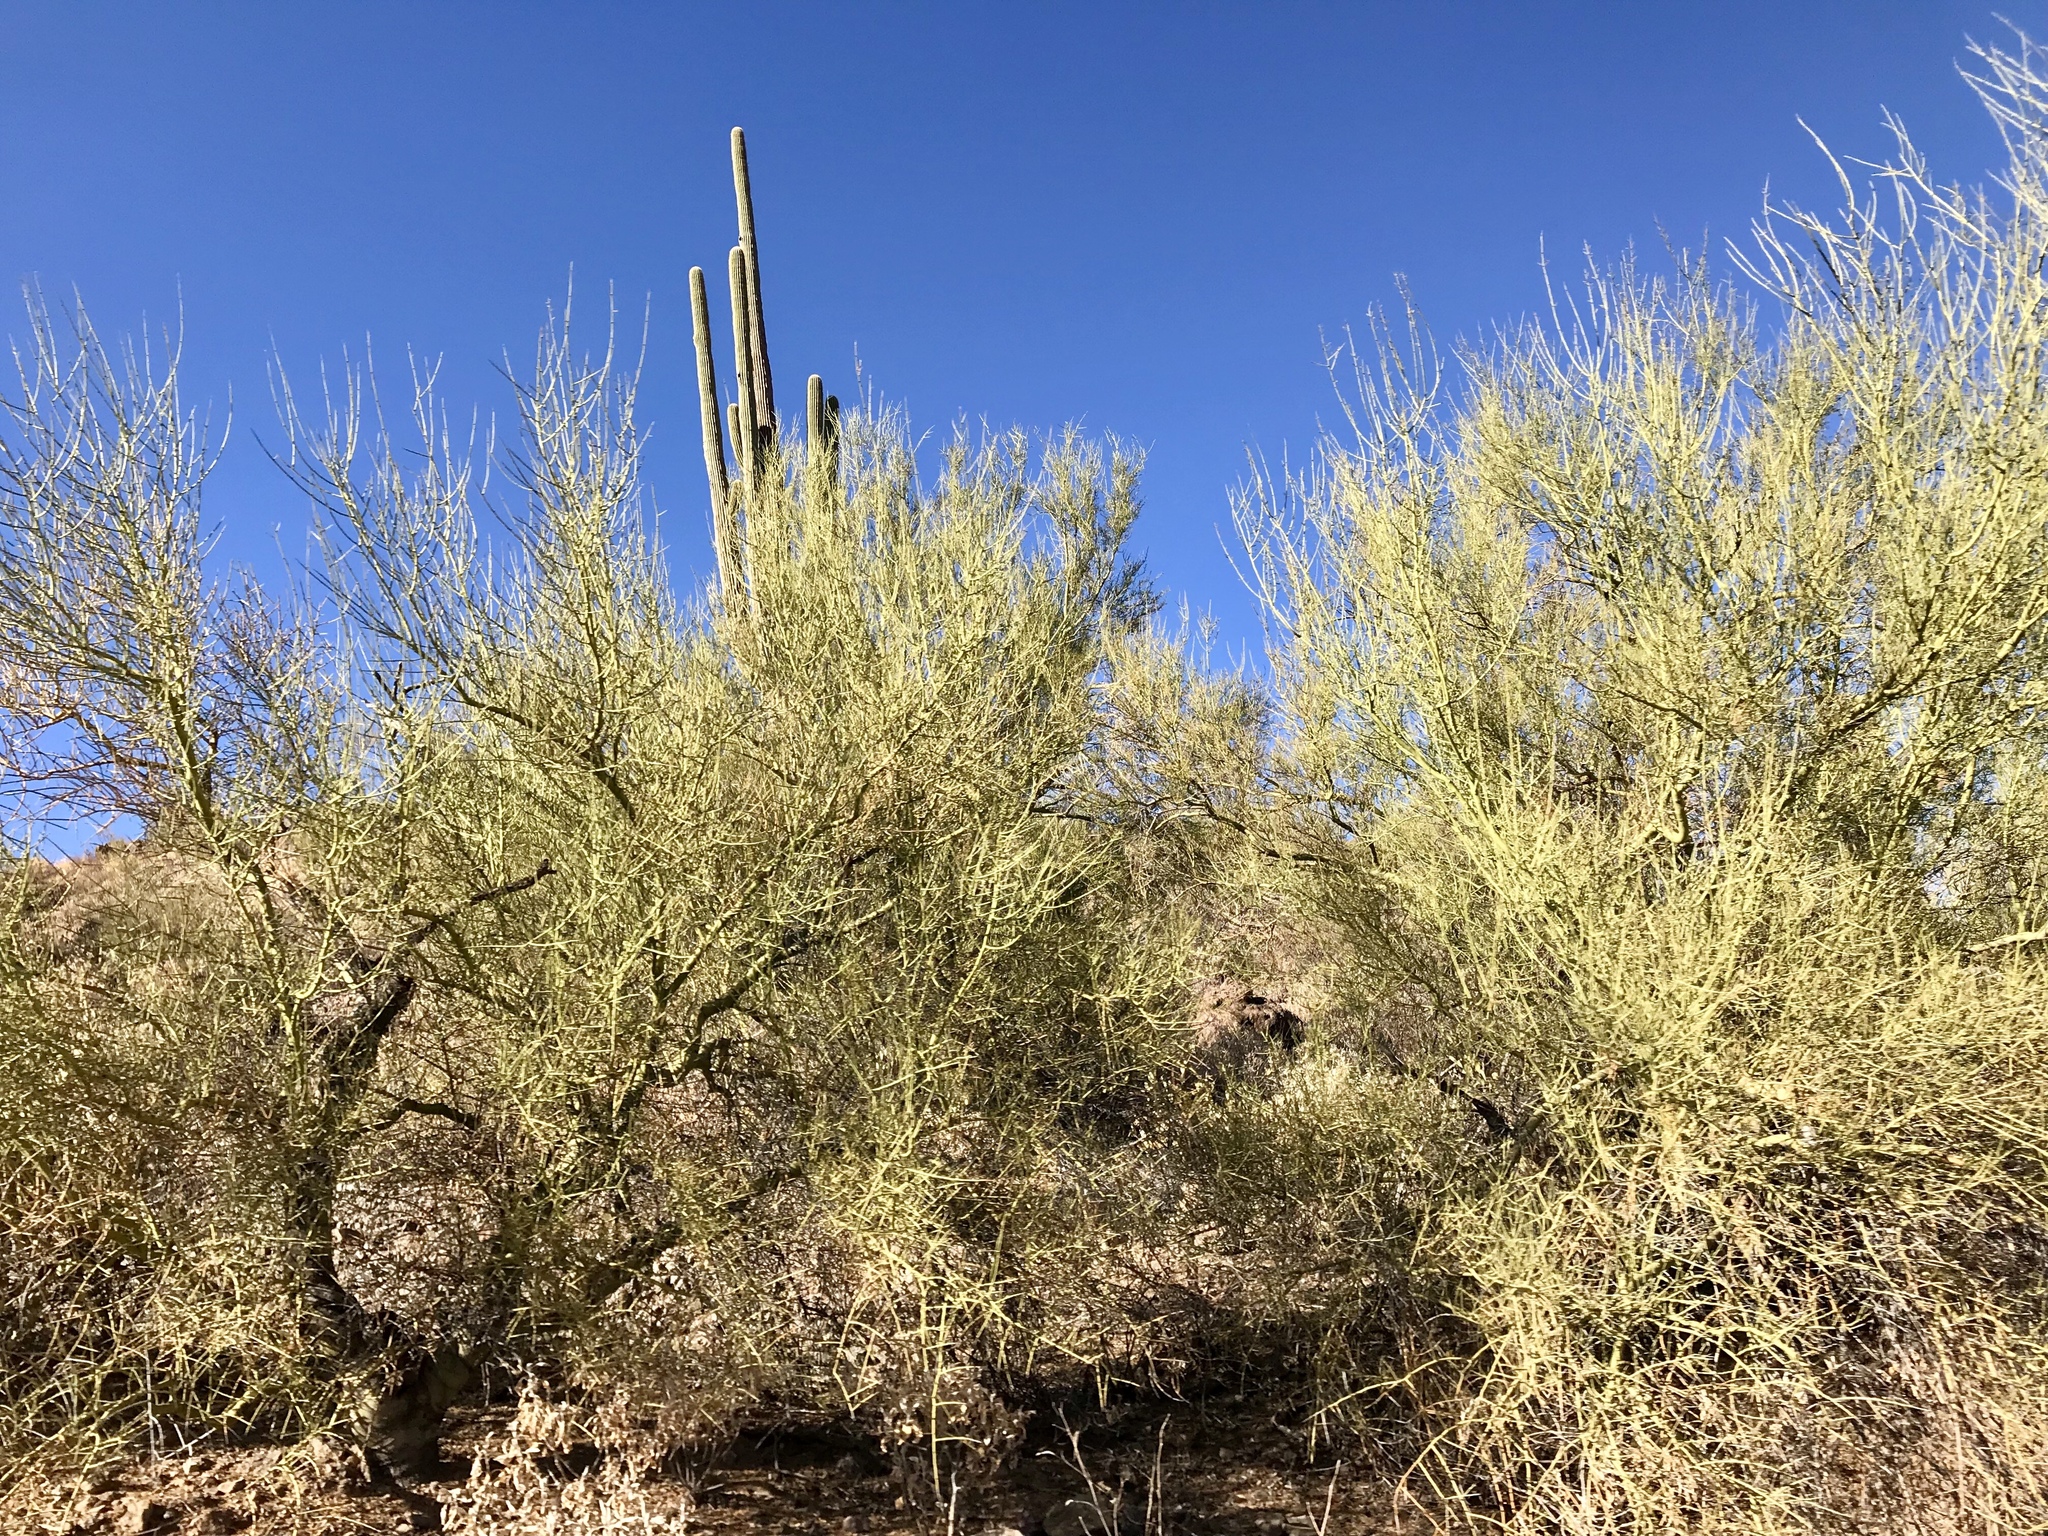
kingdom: Plantae
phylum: Tracheophyta
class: Magnoliopsida
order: Fabales
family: Fabaceae
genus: Parkinsonia
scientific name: Parkinsonia microphylla
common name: Yellow paloverde
